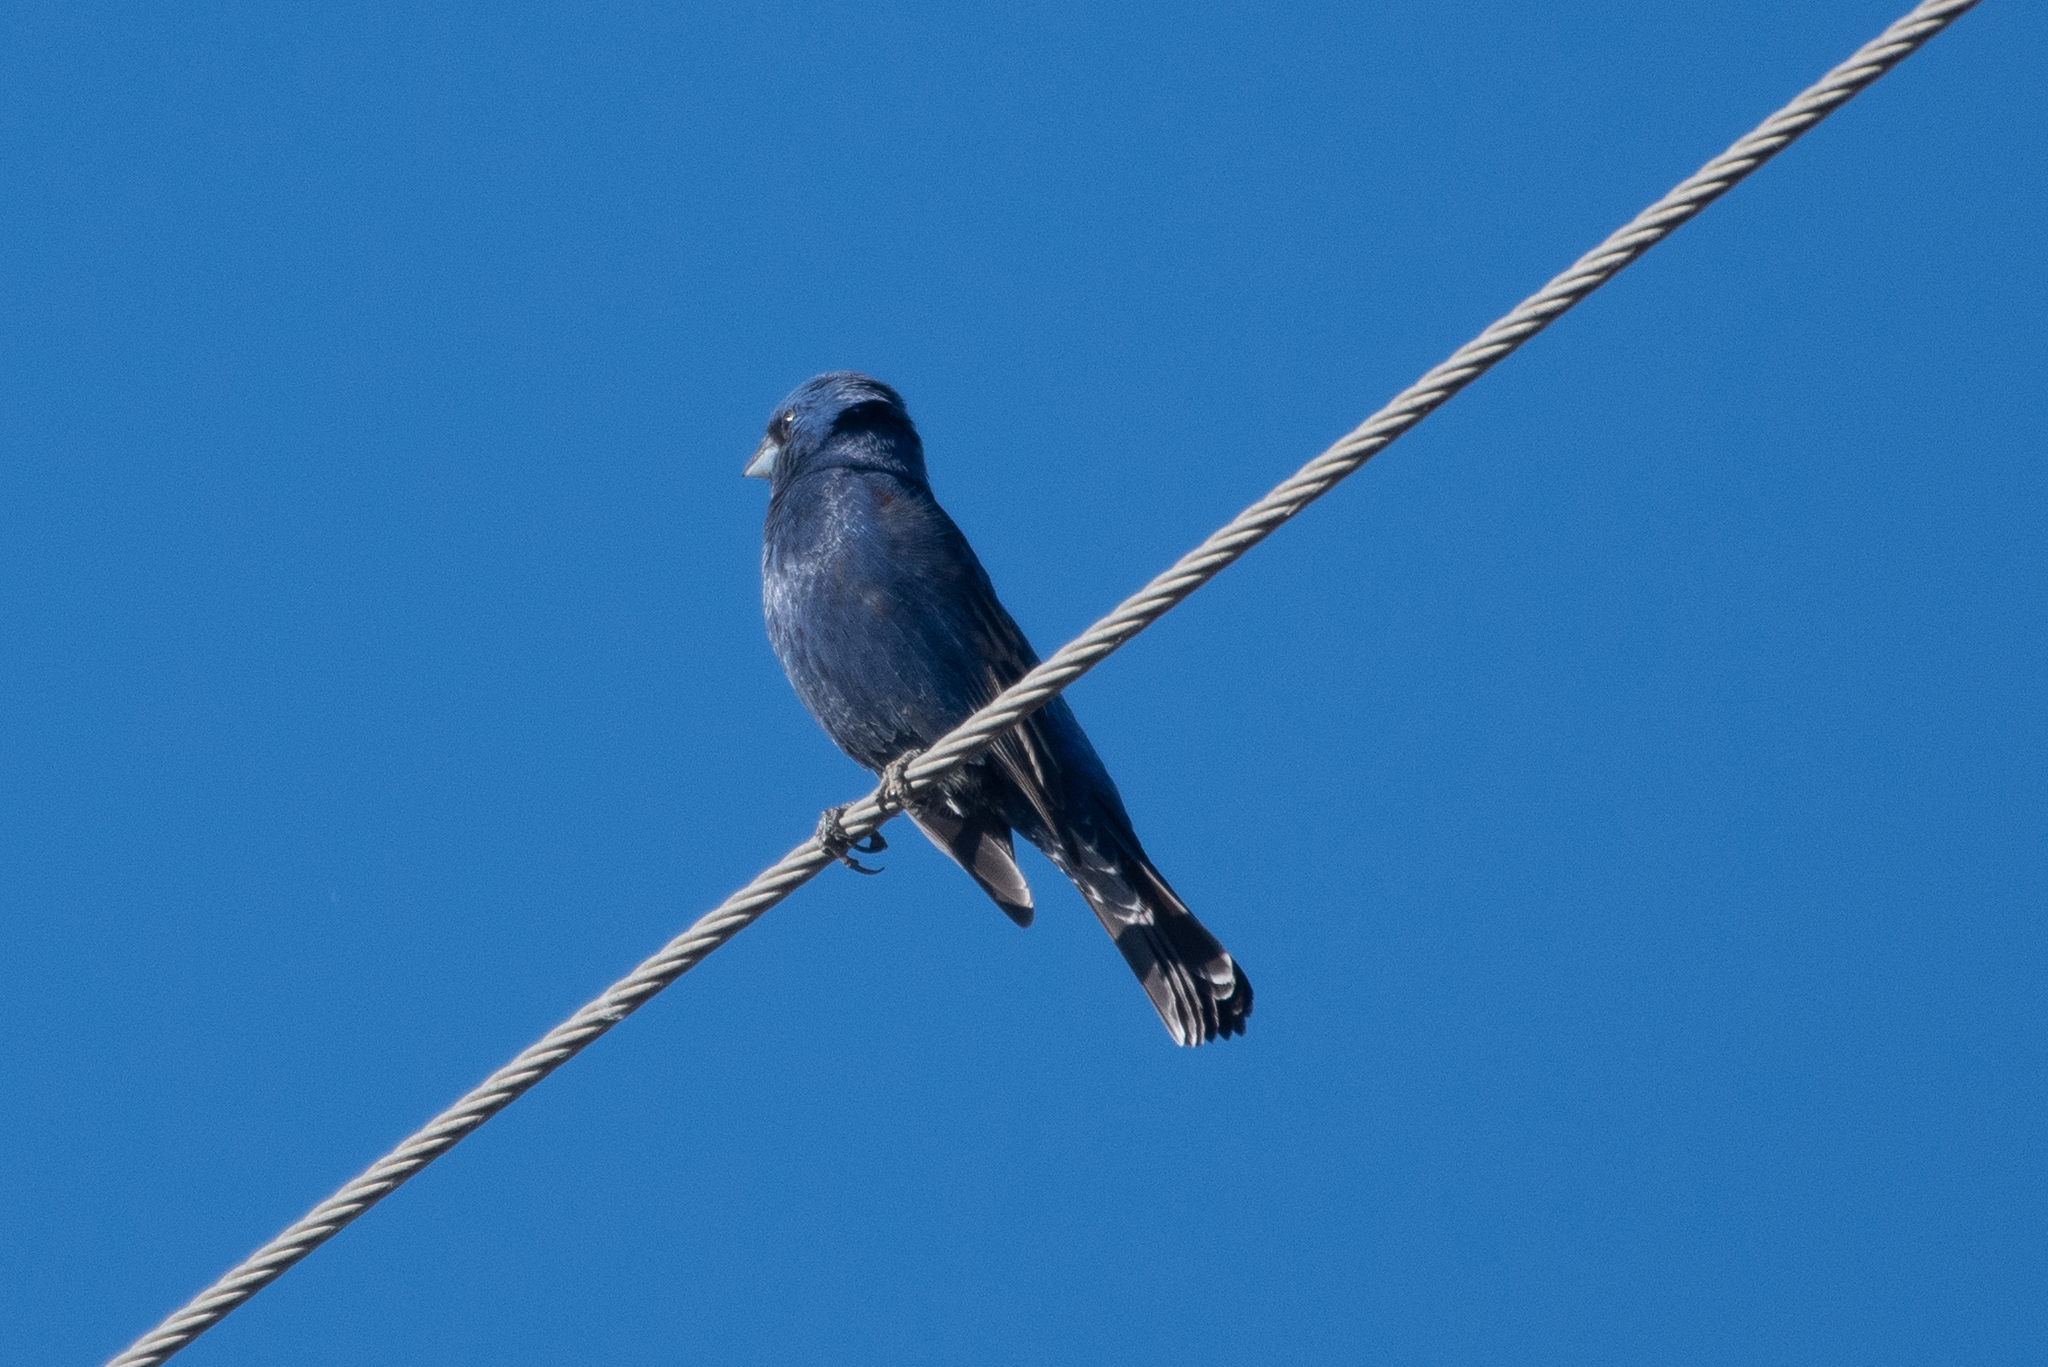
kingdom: Animalia
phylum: Chordata
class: Aves
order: Passeriformes
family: Cardinalidae
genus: Passerina
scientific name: Passerina caerulea
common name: Blue grosbeak
